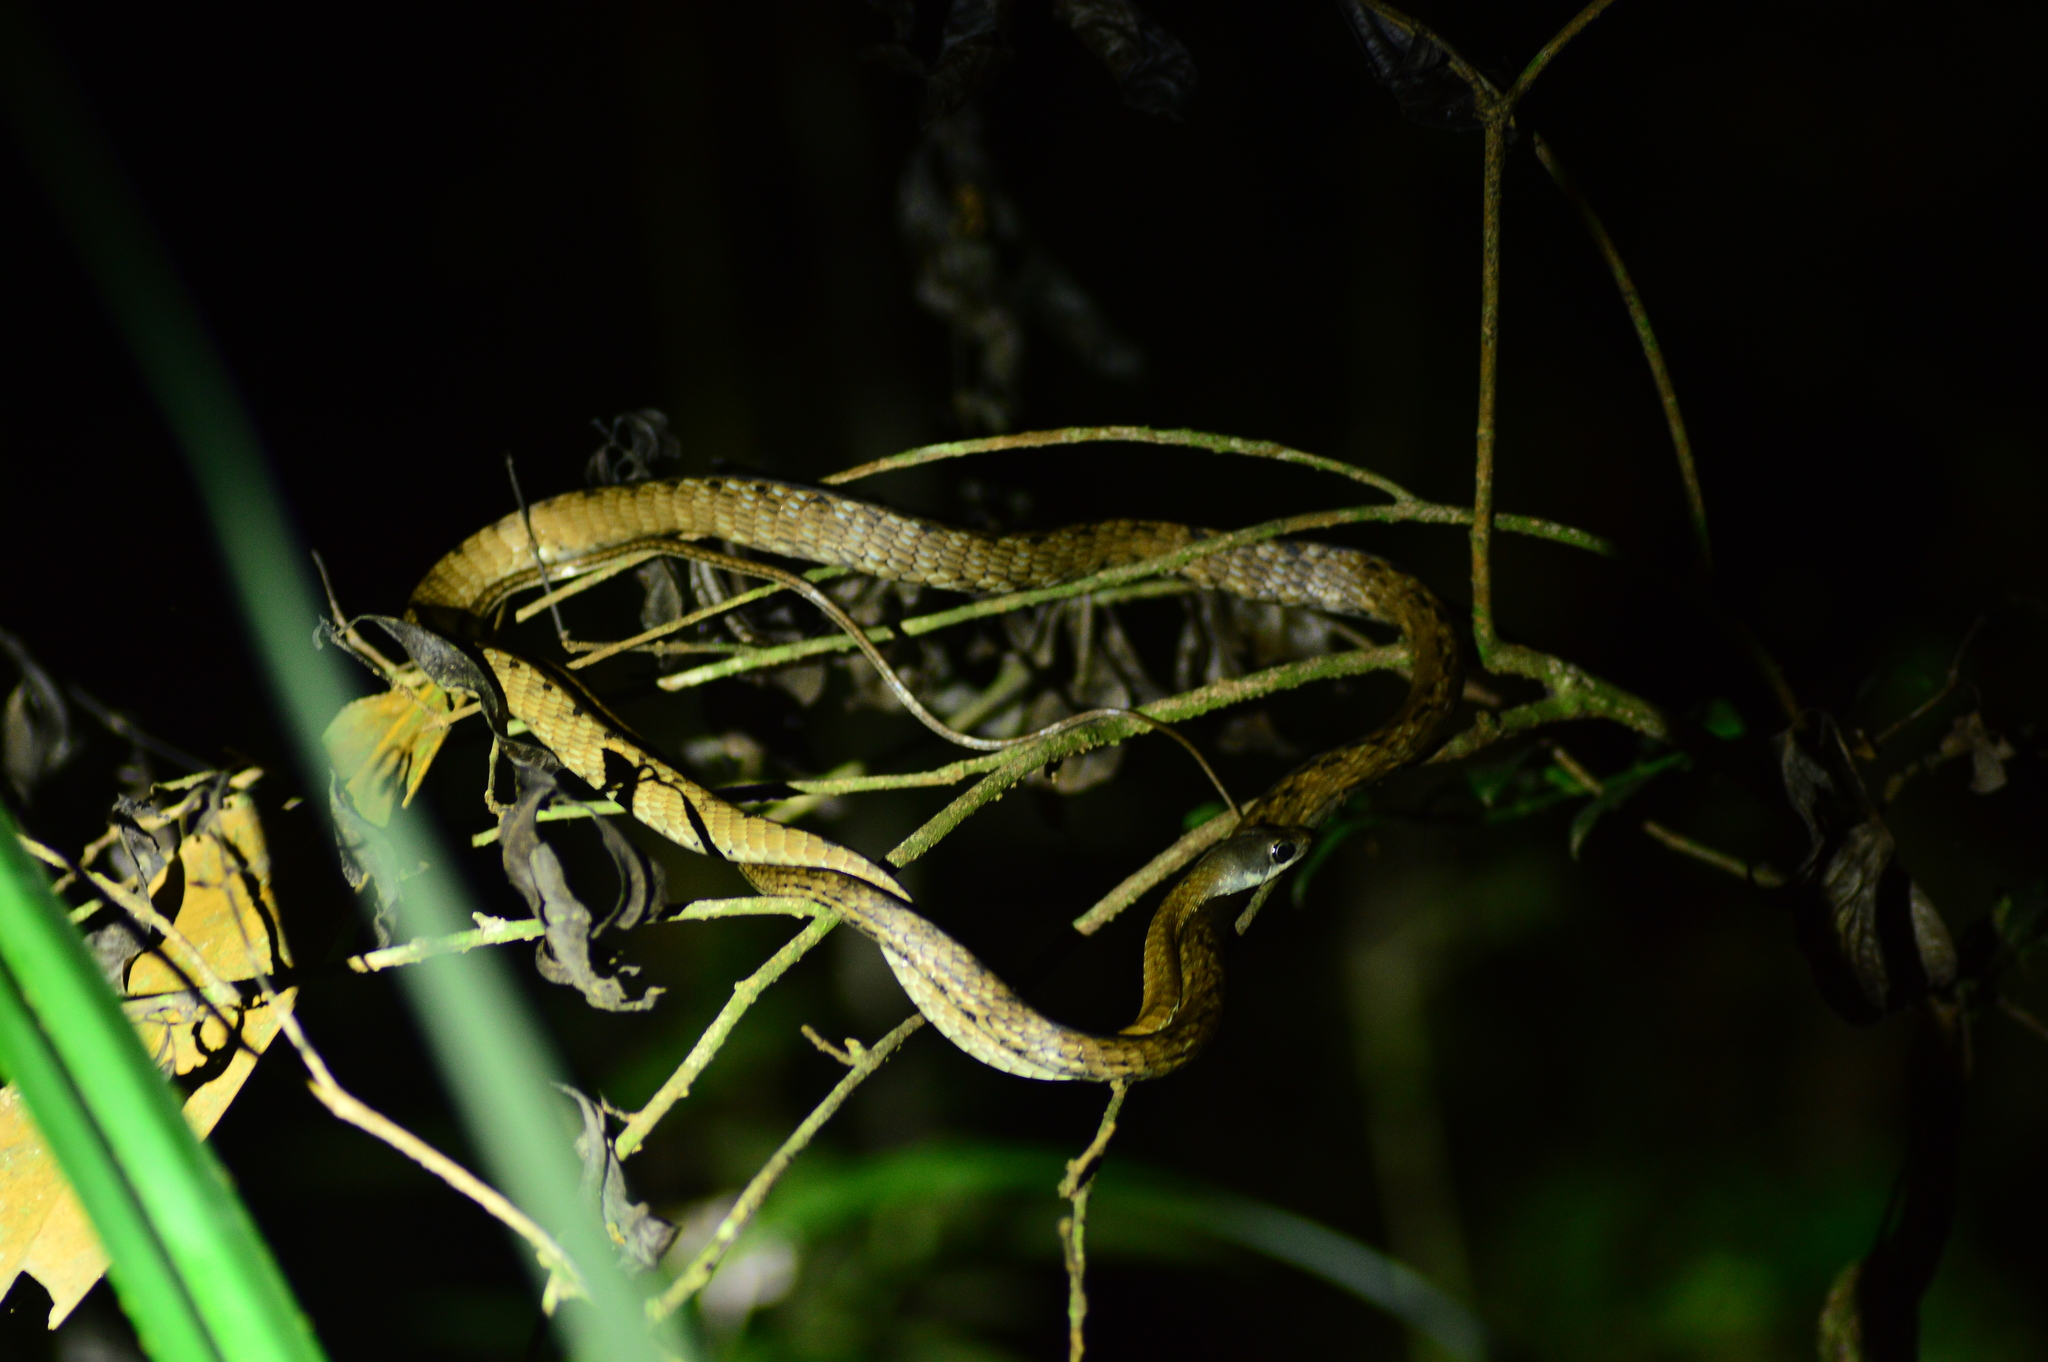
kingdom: Animalia
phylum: Chordata
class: Squamata
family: Colubridae
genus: Dendrelaphis
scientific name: Dendrelaphis grandoculis
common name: Southern bronzeback
